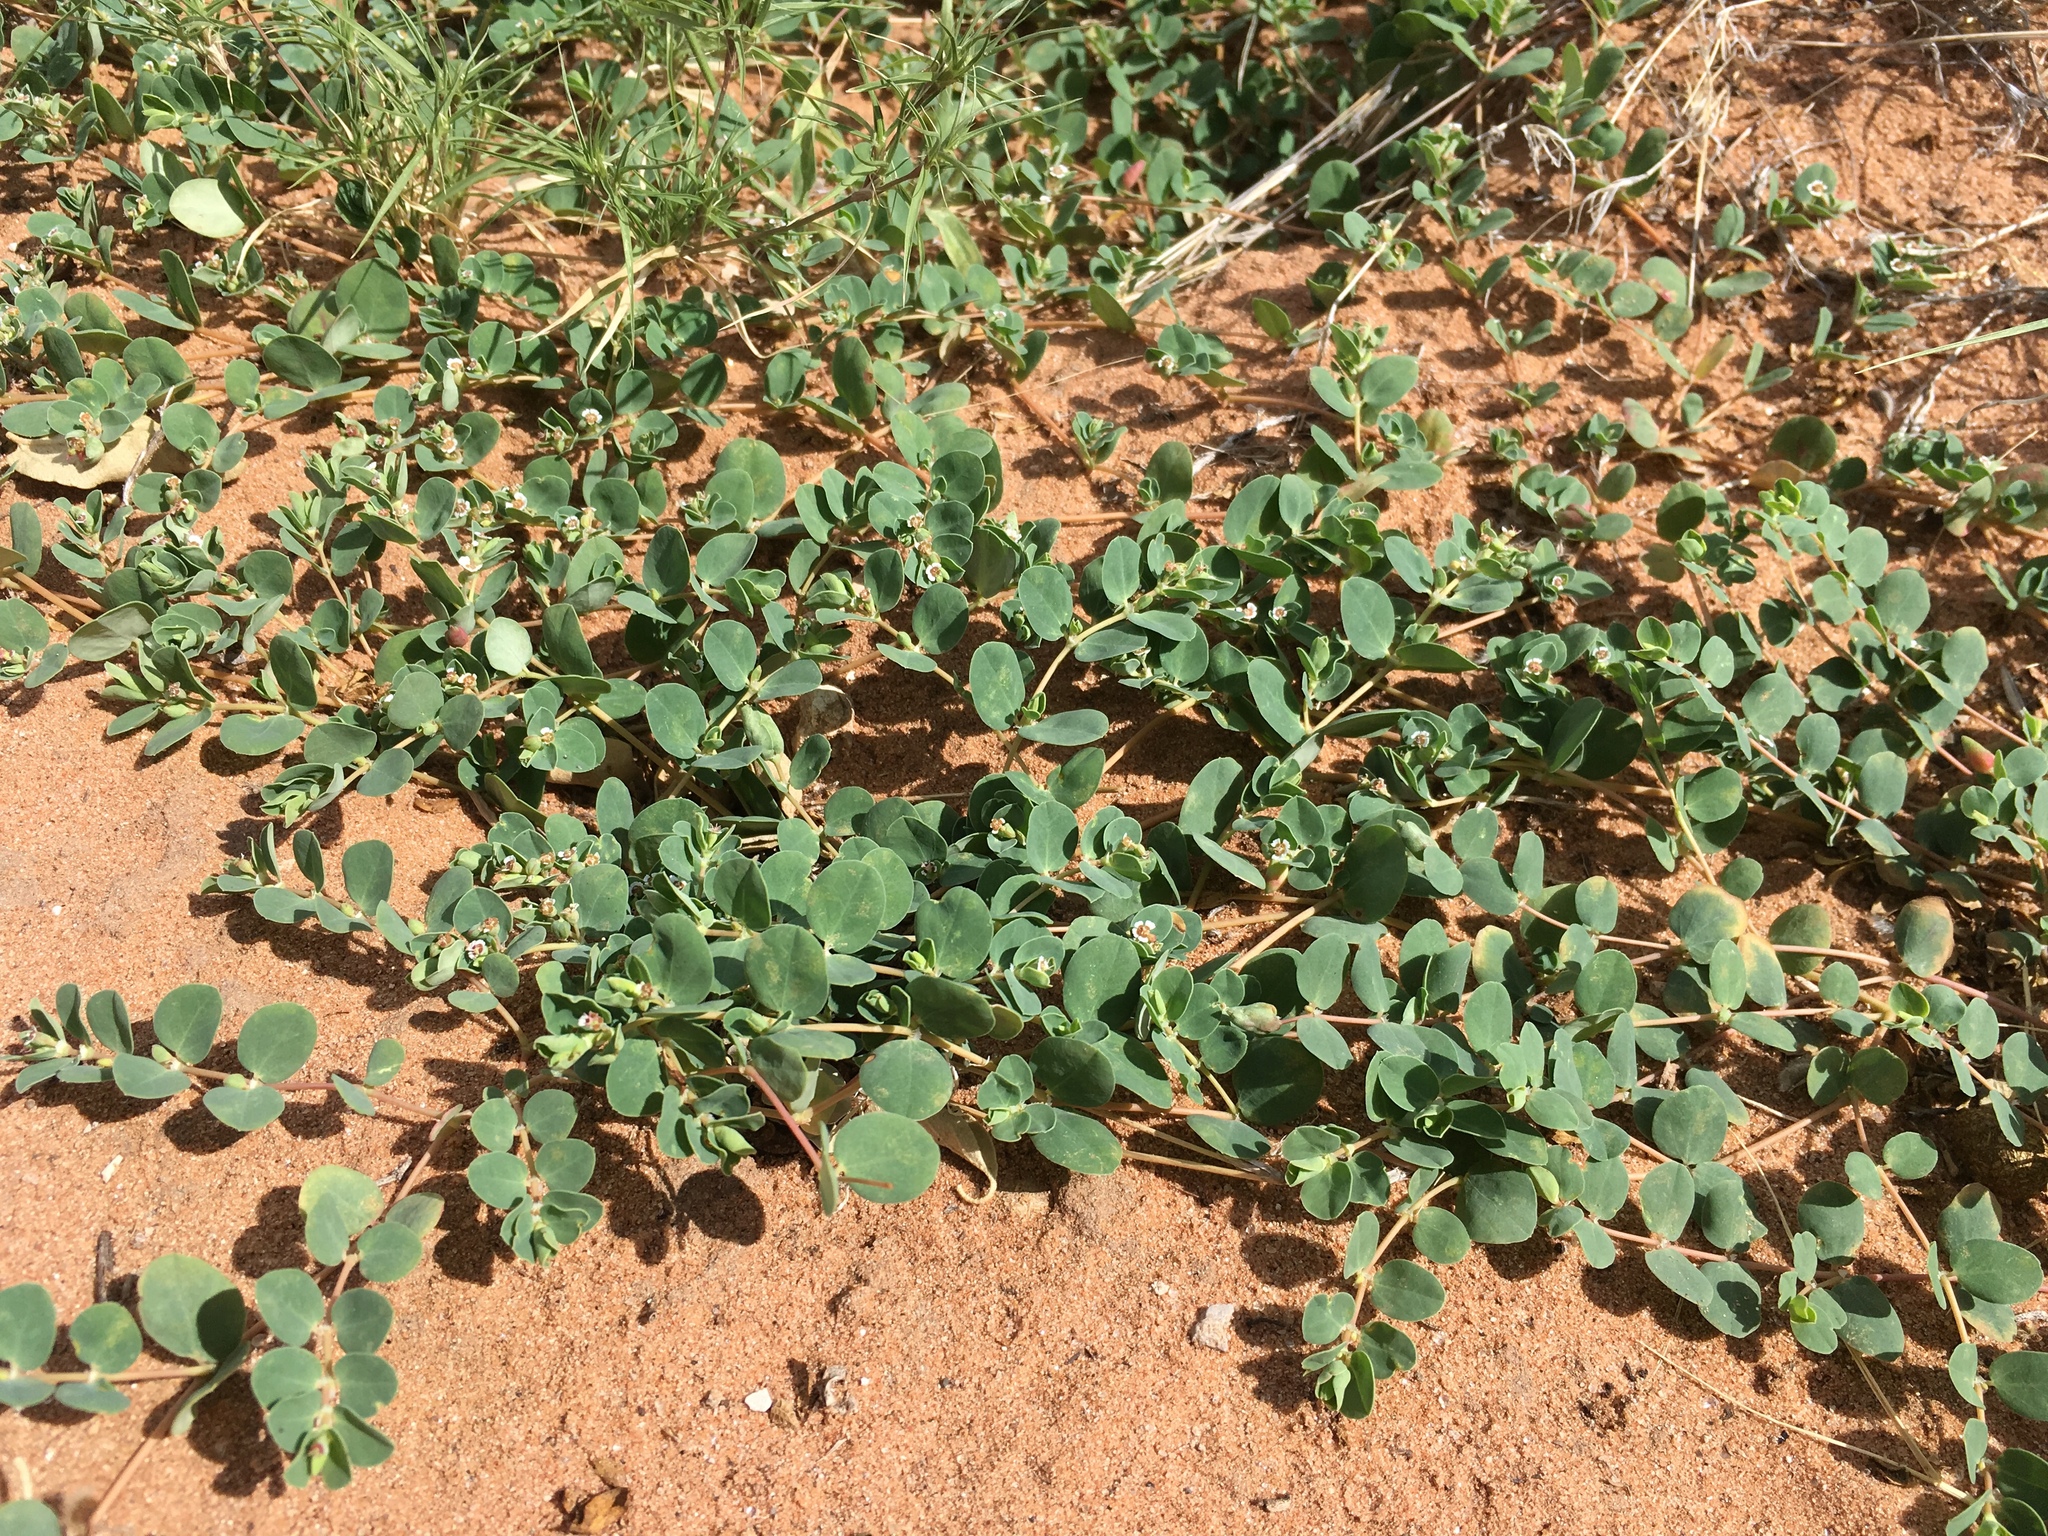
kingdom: Plantae
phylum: Tracheophyta
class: Magnoliopsida
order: Malpighiales
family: Euphorbiaceae
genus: Euphorbia
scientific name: Euphorbia albomarginata
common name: Whitemargin sandmat
